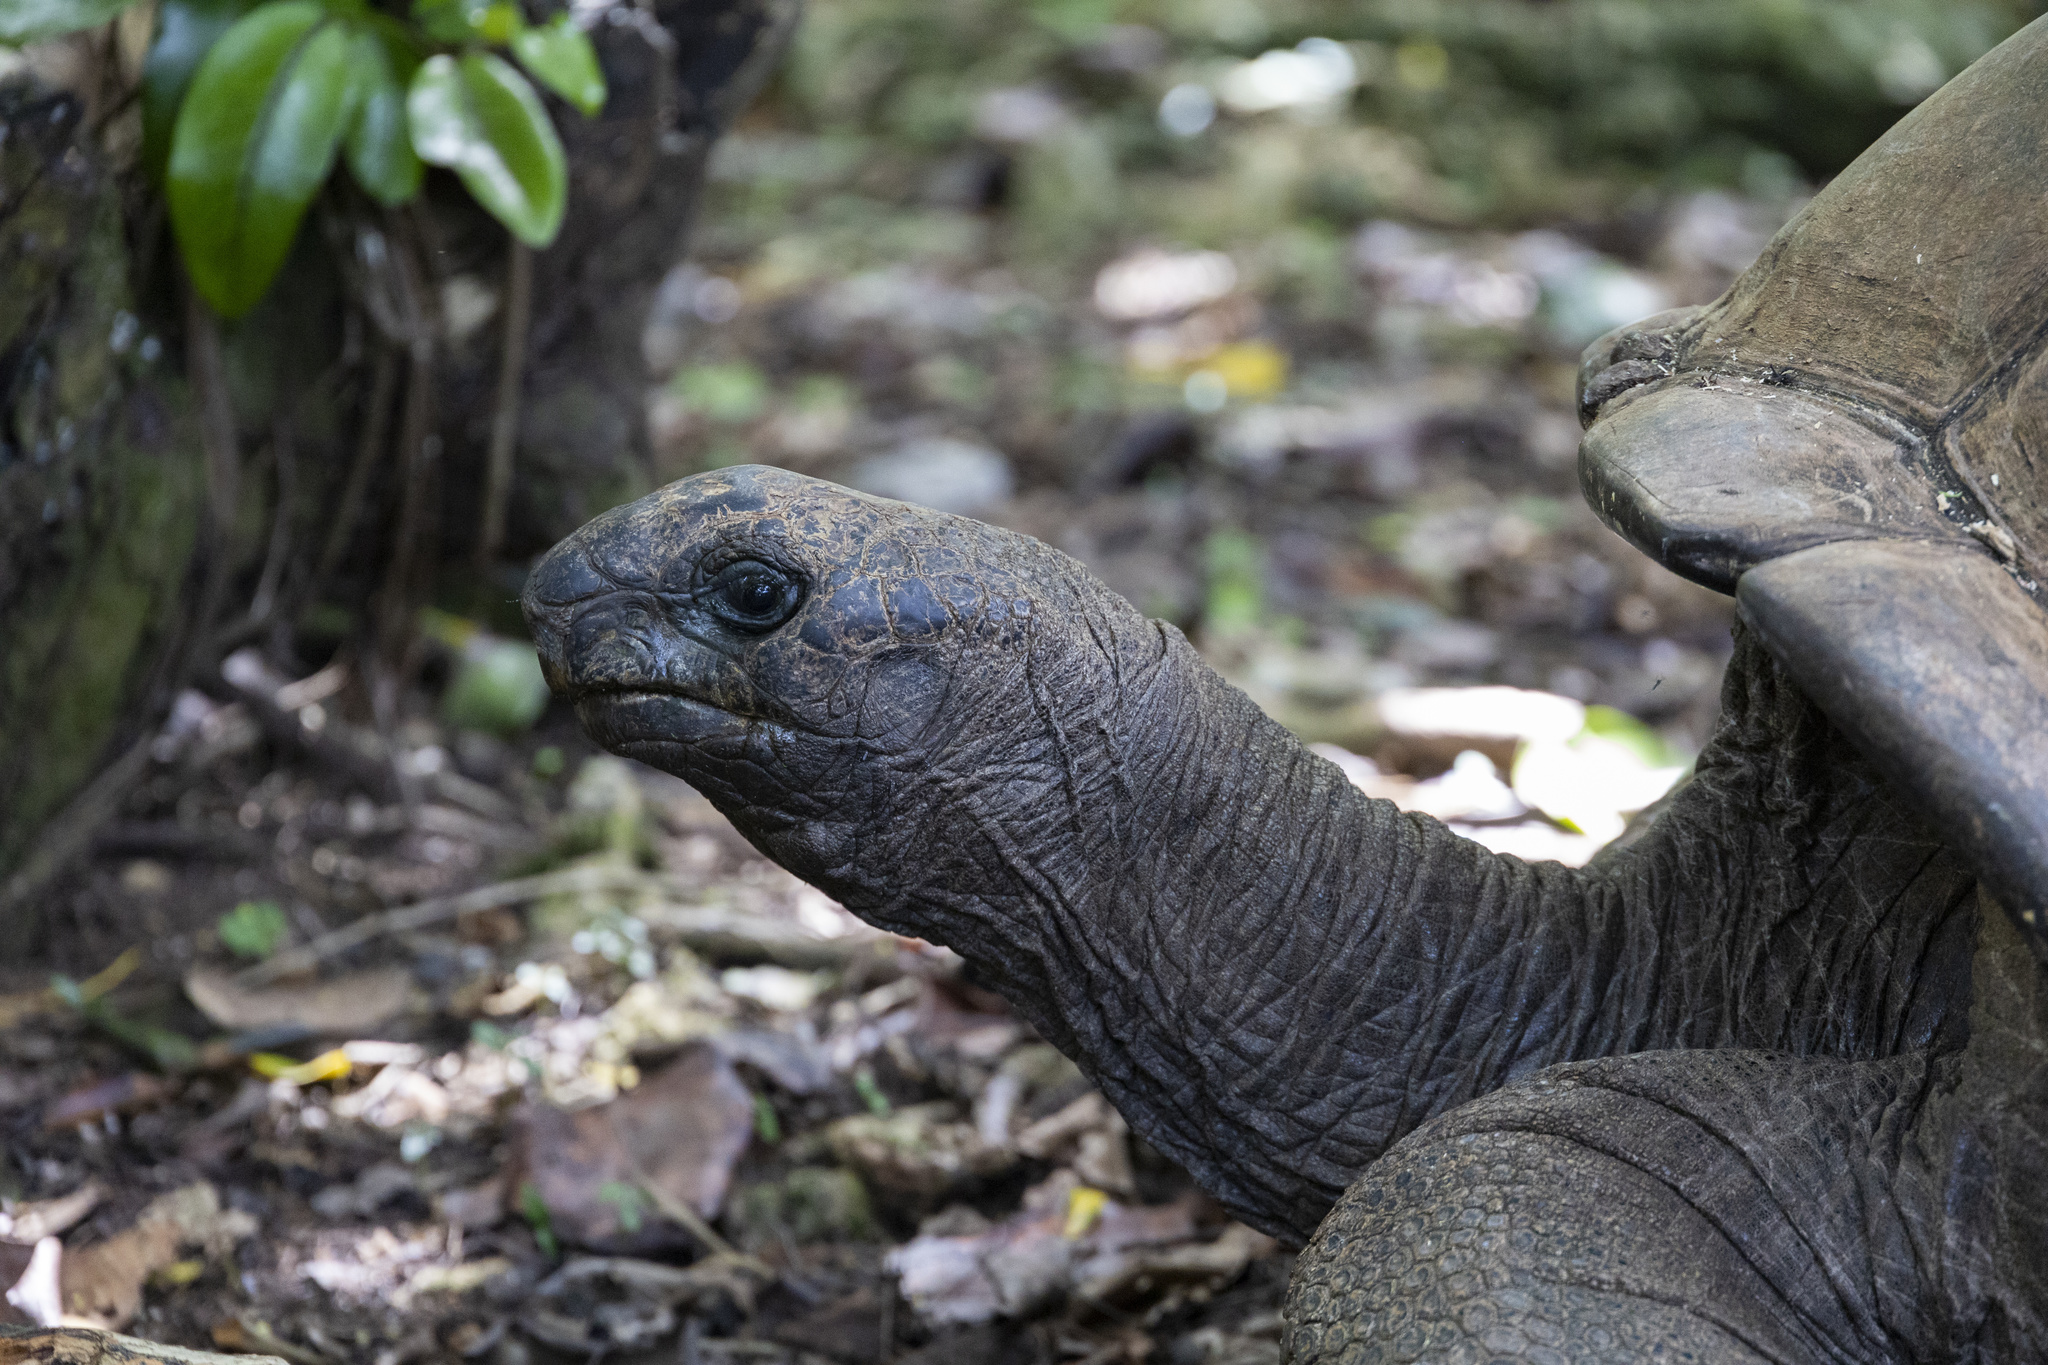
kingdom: Animalia
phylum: Chordata
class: Testudines
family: Testudinidae
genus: Aldabrachelys
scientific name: Aldabrachelys gigantea
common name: Aldabra giant tortoise
